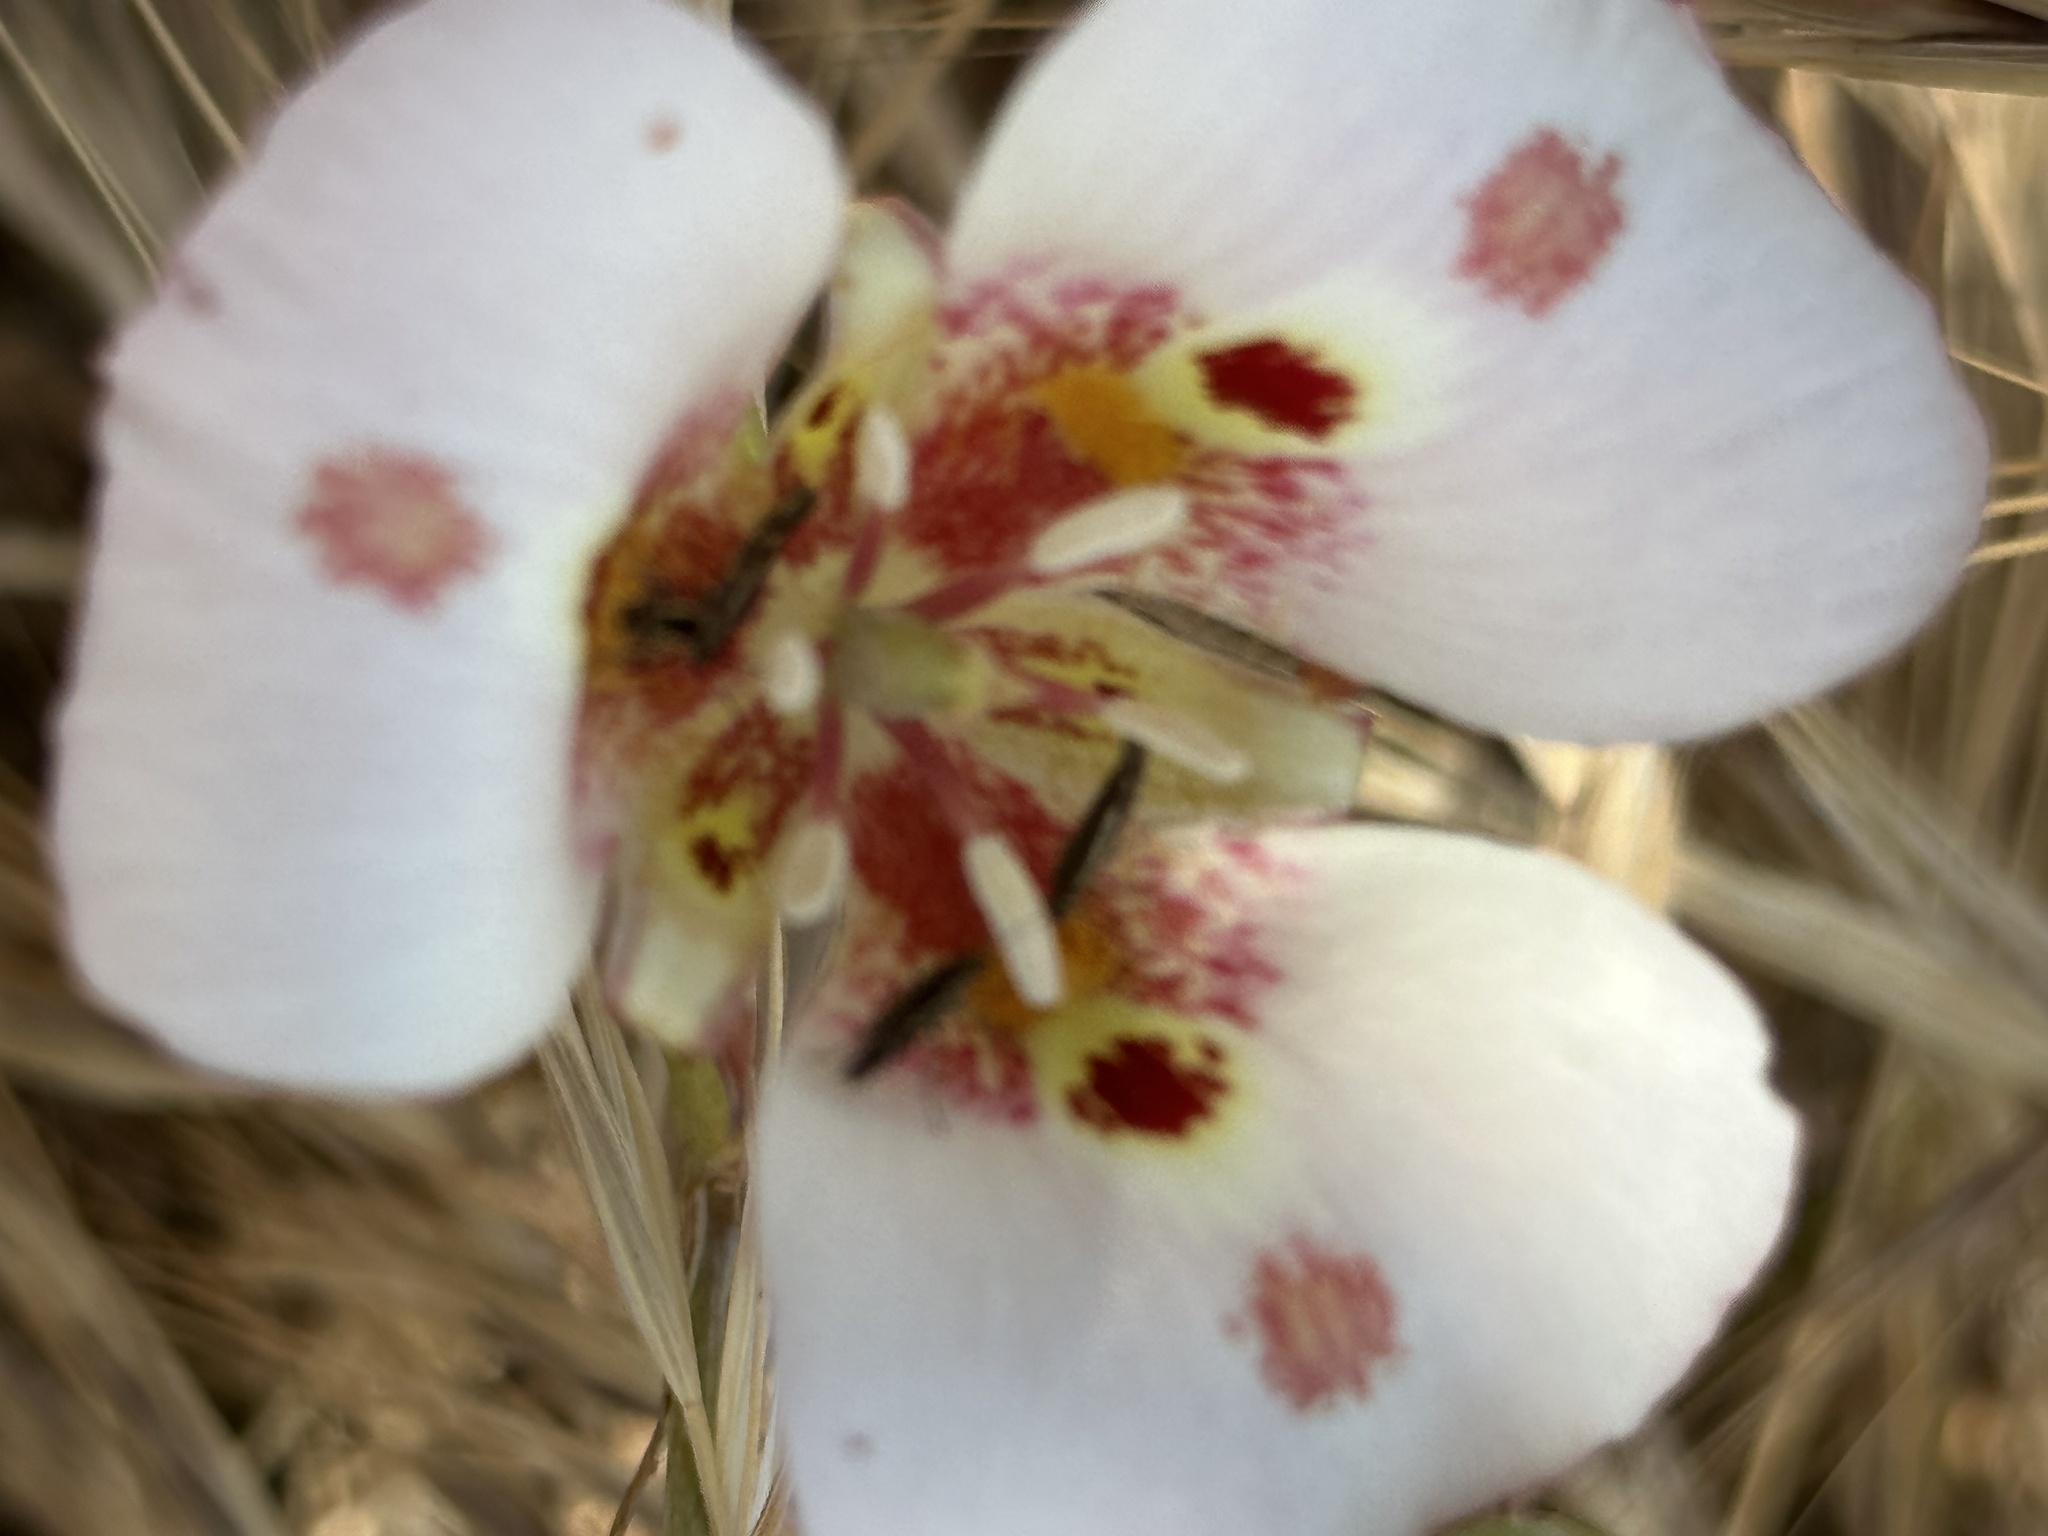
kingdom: Plantae
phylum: Tracheophyta
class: Liliopsida
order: Liliales
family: Liliaceae
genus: Calochortus
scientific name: Calochortus venustus
